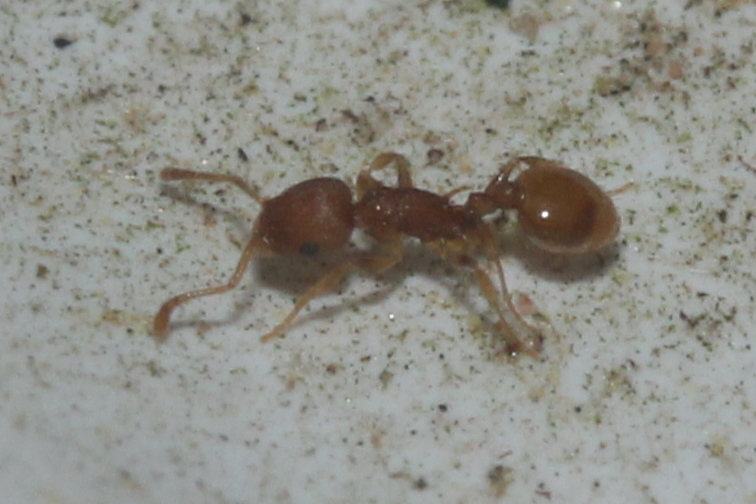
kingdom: Animalia
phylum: Arthropoda
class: Insecta
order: Hymenoptera
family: Formicidae
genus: Temnothorax
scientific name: Temnothorax curvispinosus
